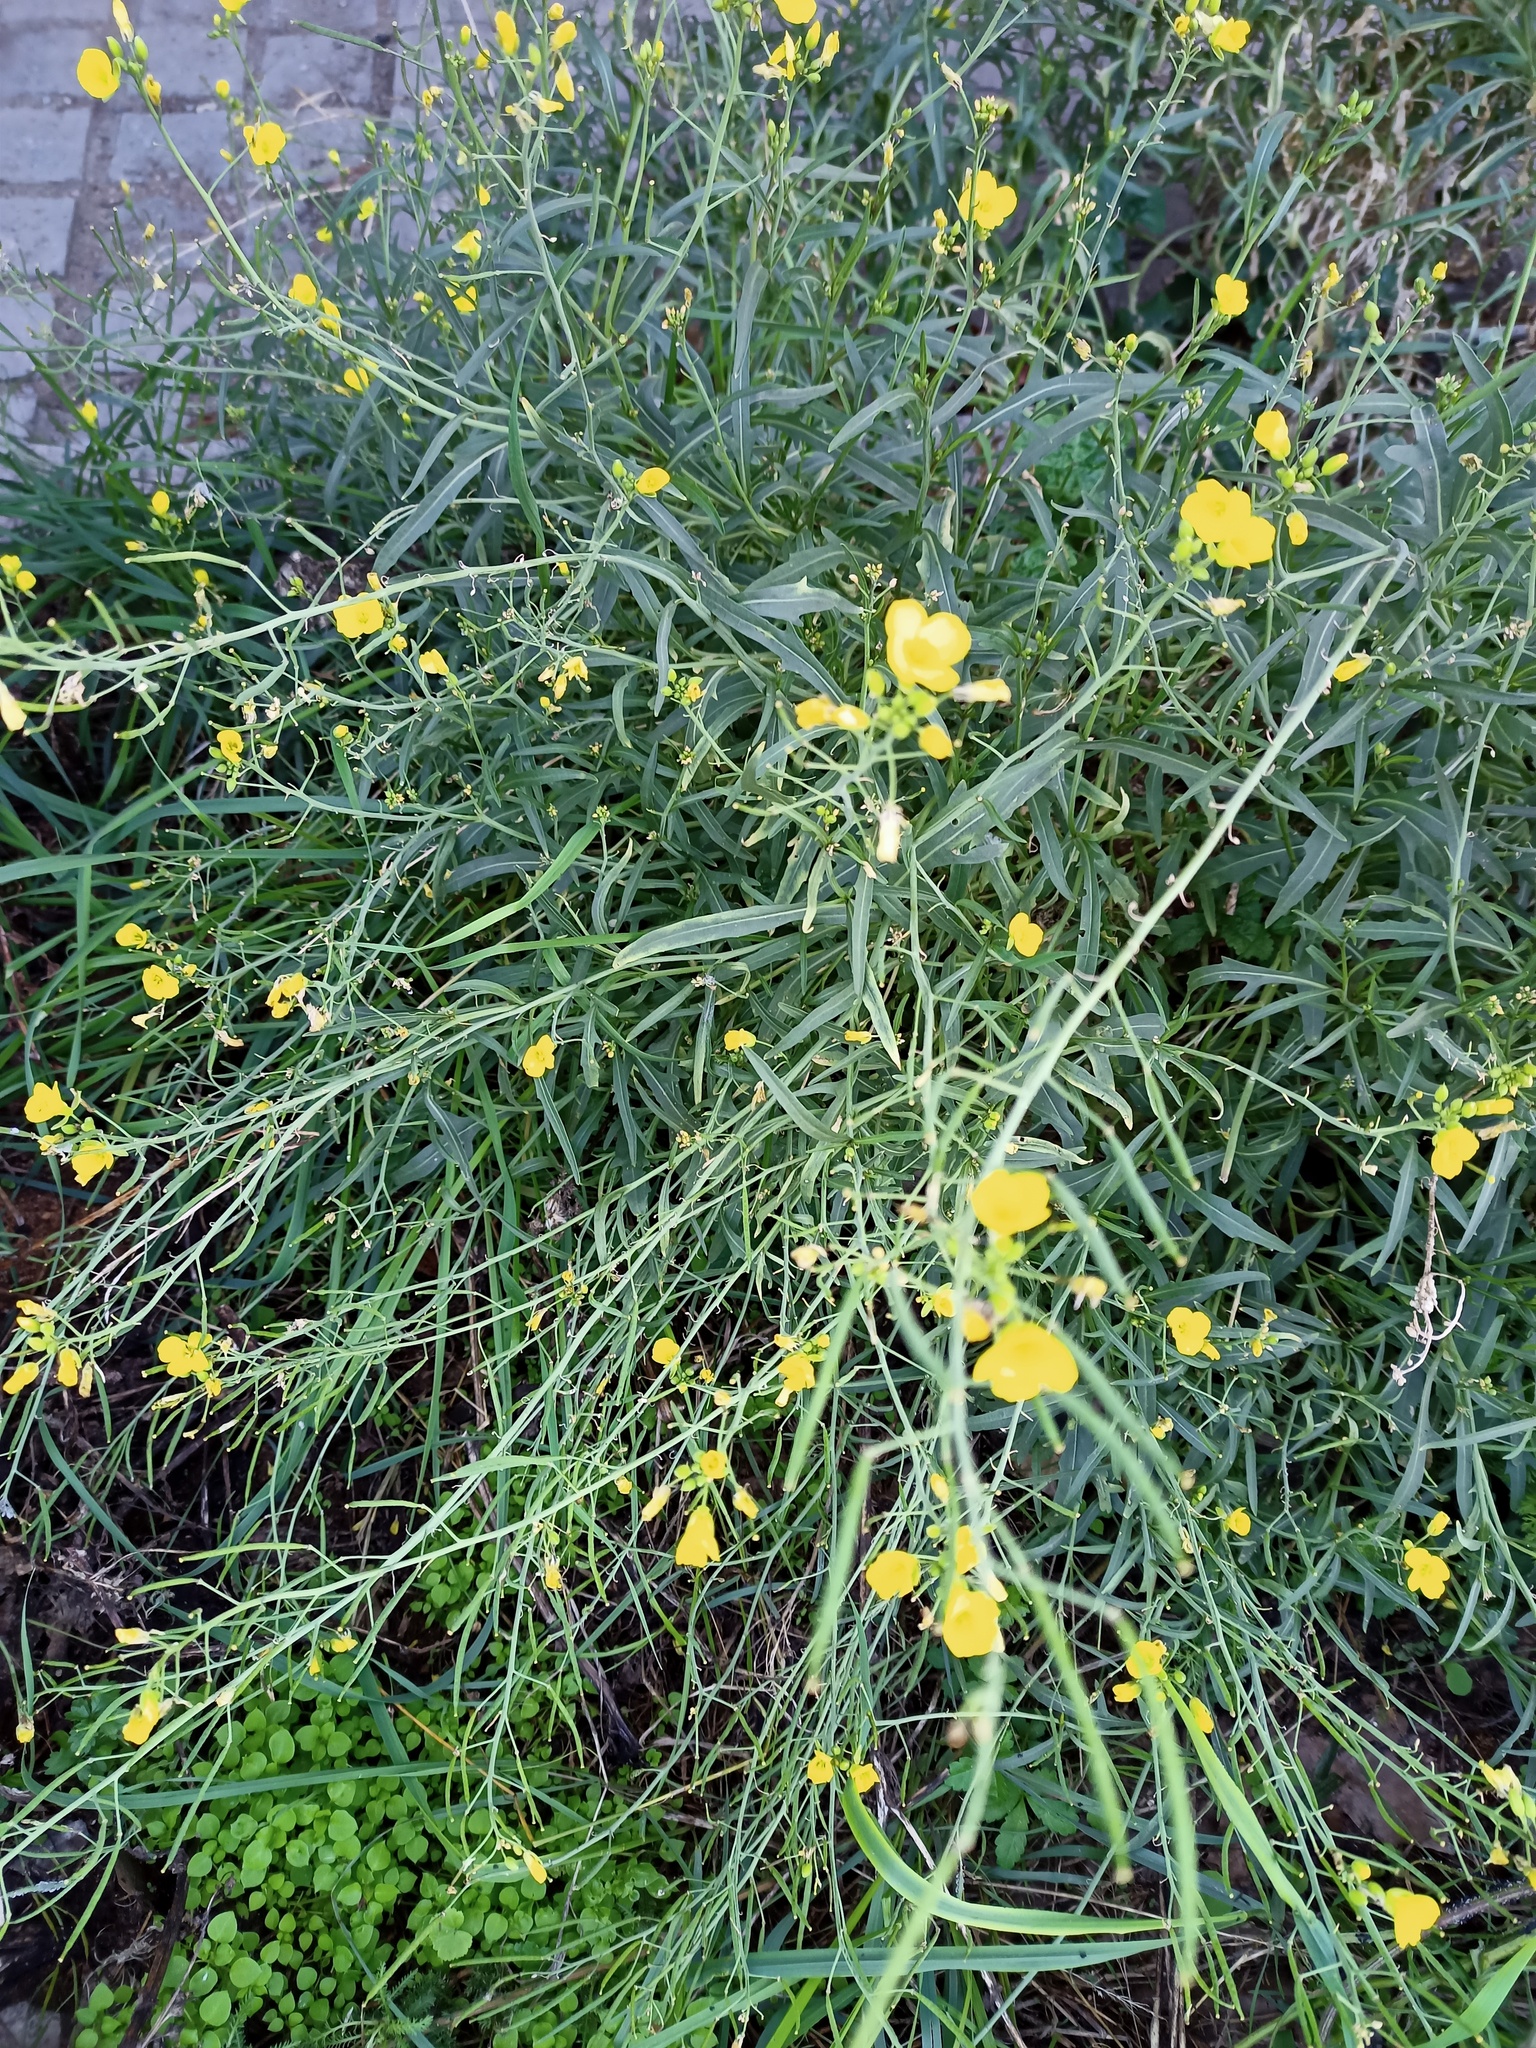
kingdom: Plantae
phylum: Tracheophyta
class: Magnoliopsida
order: Brassicales
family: Brassicaceae
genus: Diplotaxis
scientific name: Diplotaxis tenuifolia
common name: Perennial wall-rocket
